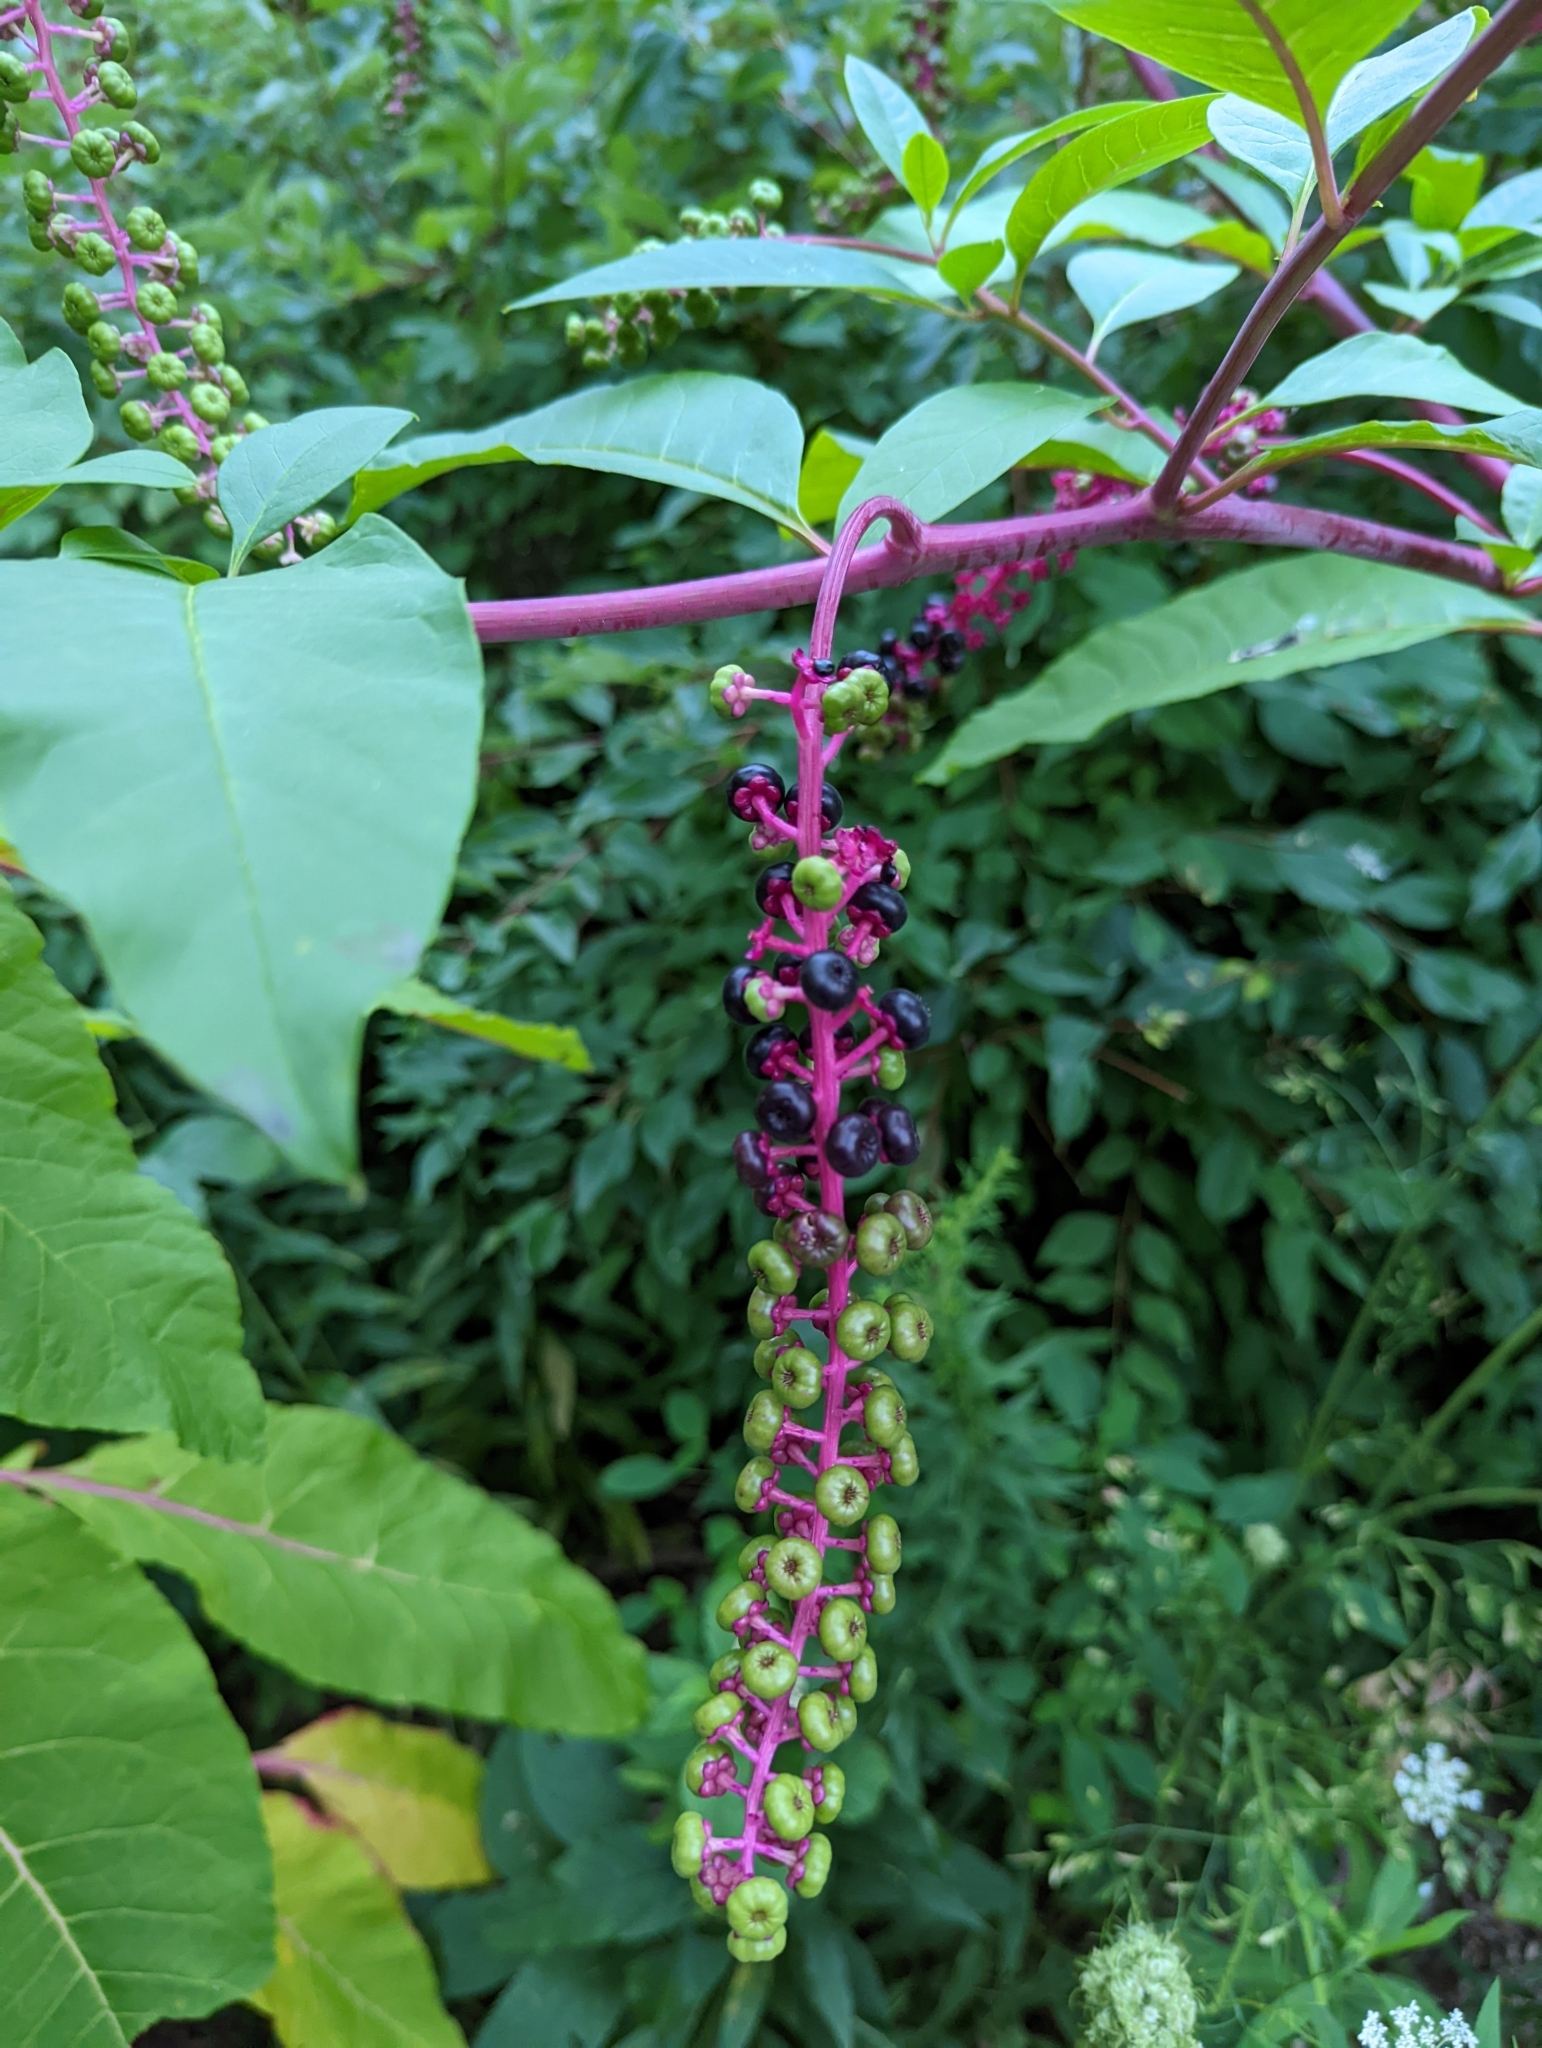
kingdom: Plantae
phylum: Tracheophyta
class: Magnoliopsida
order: Caryophyllales
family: Phytolaccaceae
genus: Phytolacca
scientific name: Phytolacca americana
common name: American pokeweed
